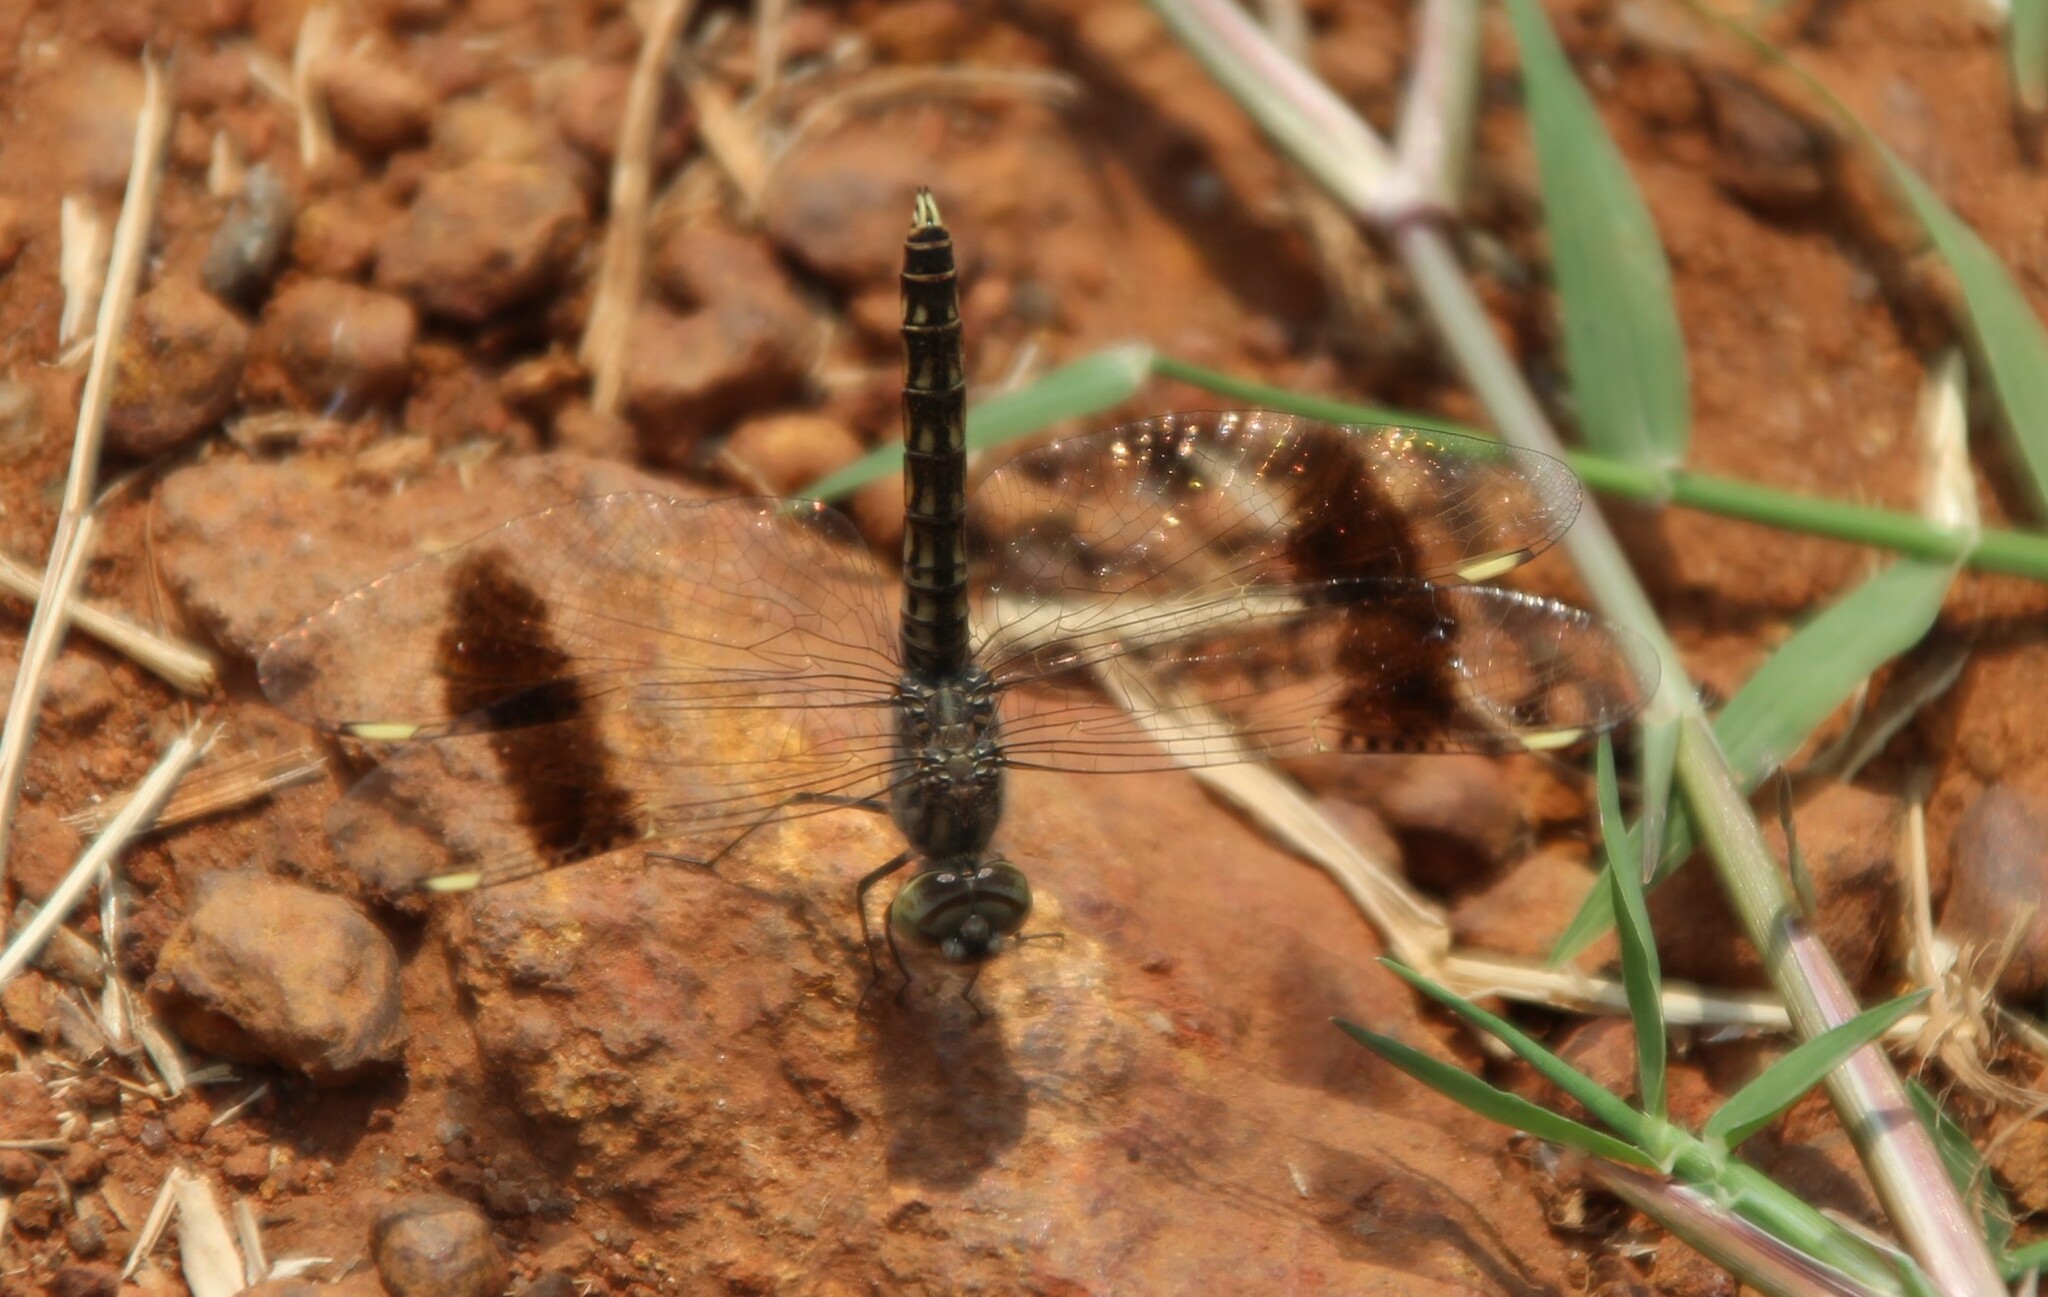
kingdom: Animalia
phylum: Arthropoda
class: Insecta
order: Odonata
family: Libellulidae
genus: Brachythemis
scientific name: Brachythemis impartita
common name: Banded groundling
